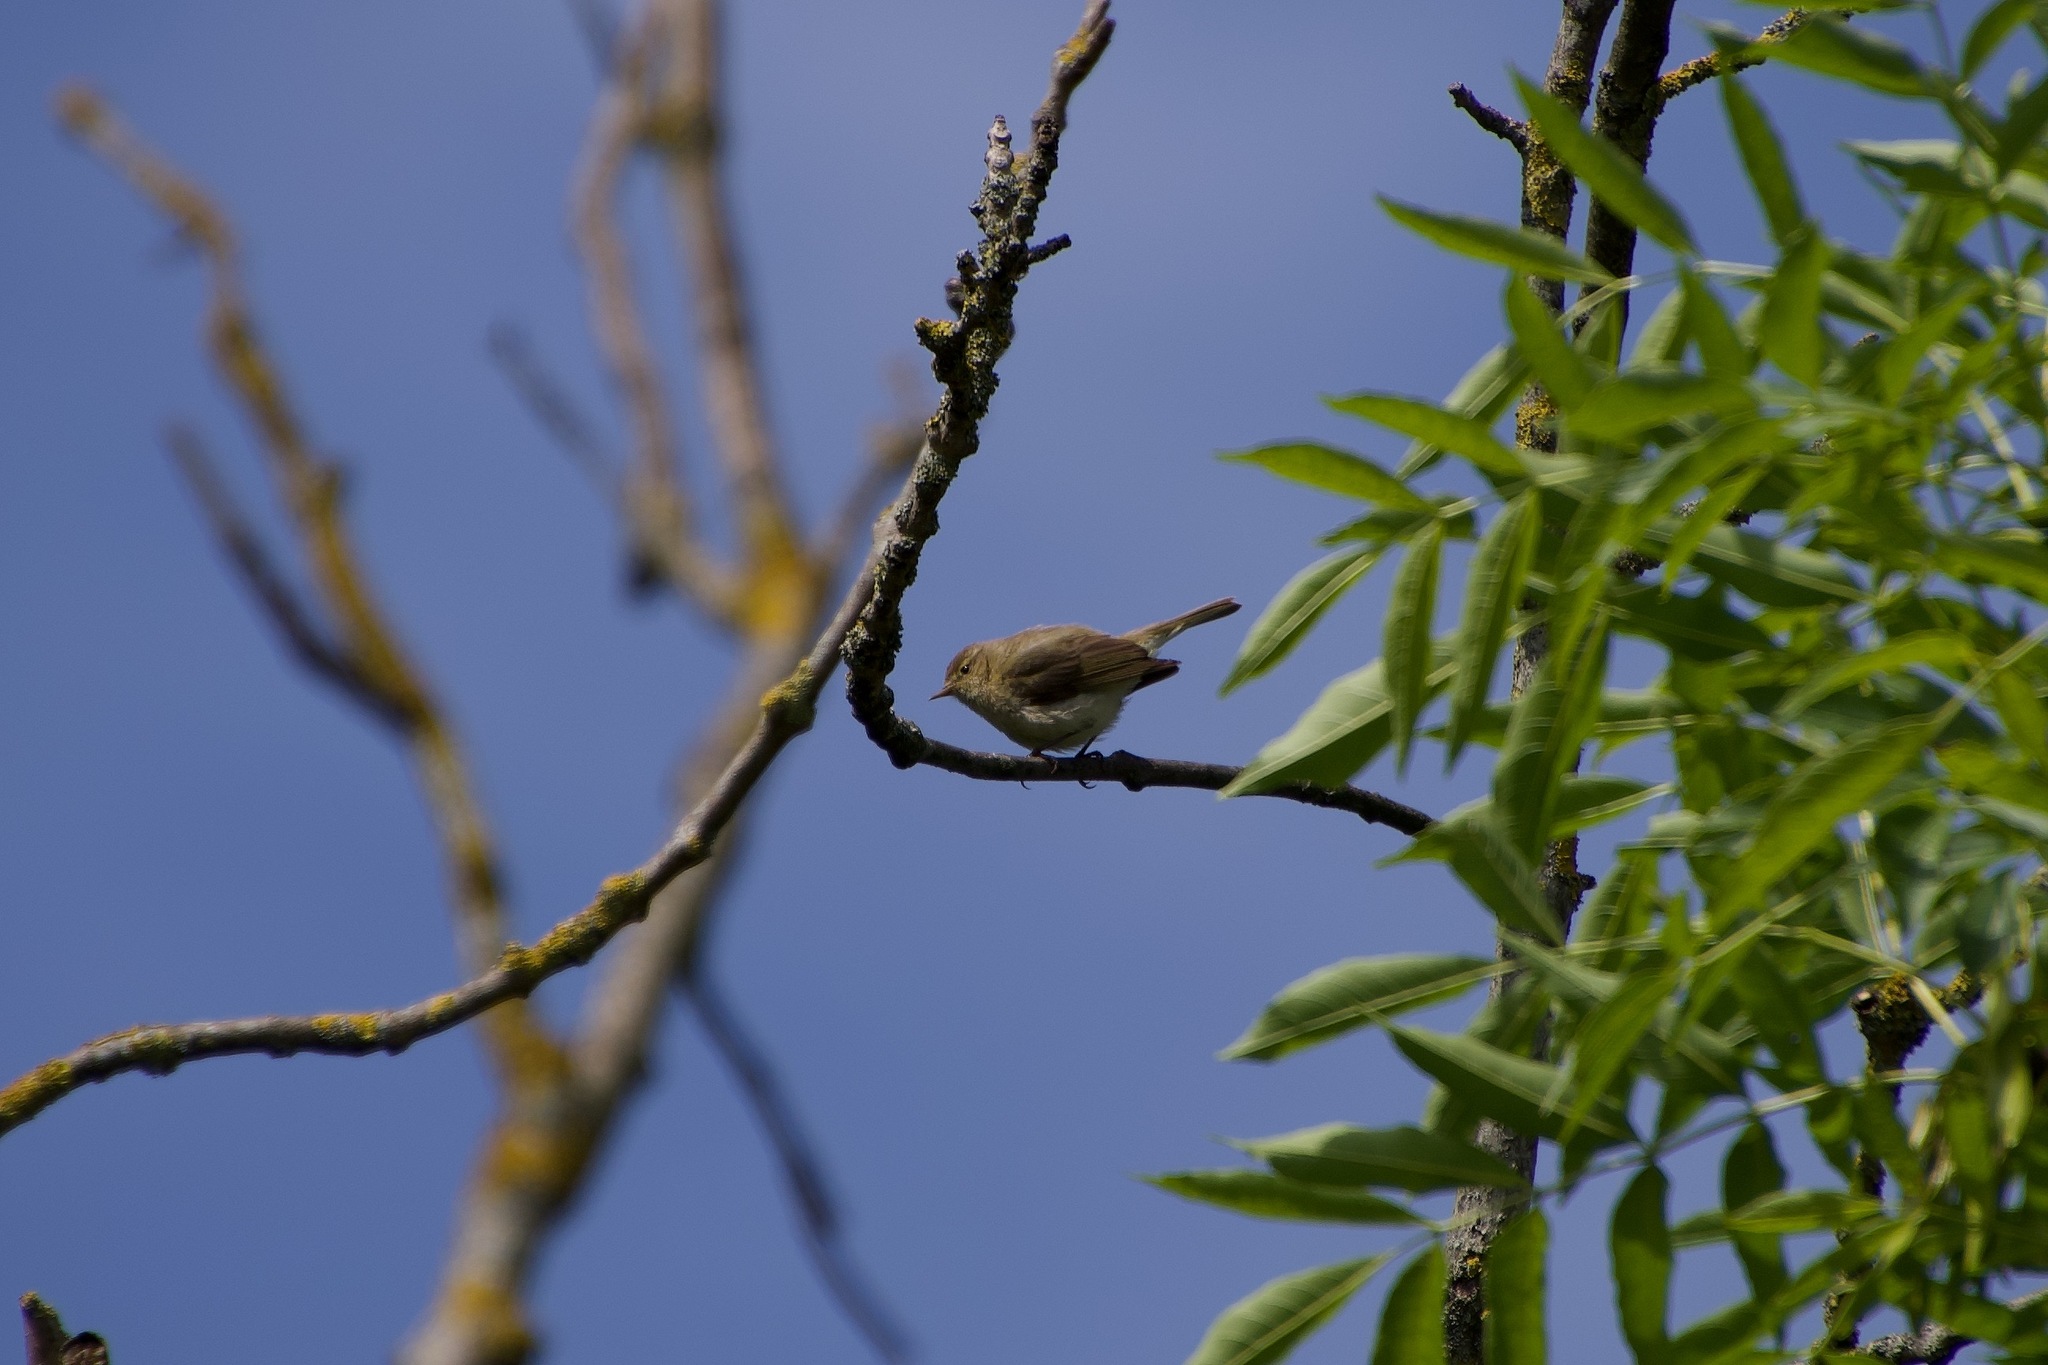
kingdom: Animalia
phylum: Chordata
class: Aves
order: Passeriformes
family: Phylloscopidae
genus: Phylloscopus
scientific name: Phylloscopus collybita
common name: Common chiffchaff
